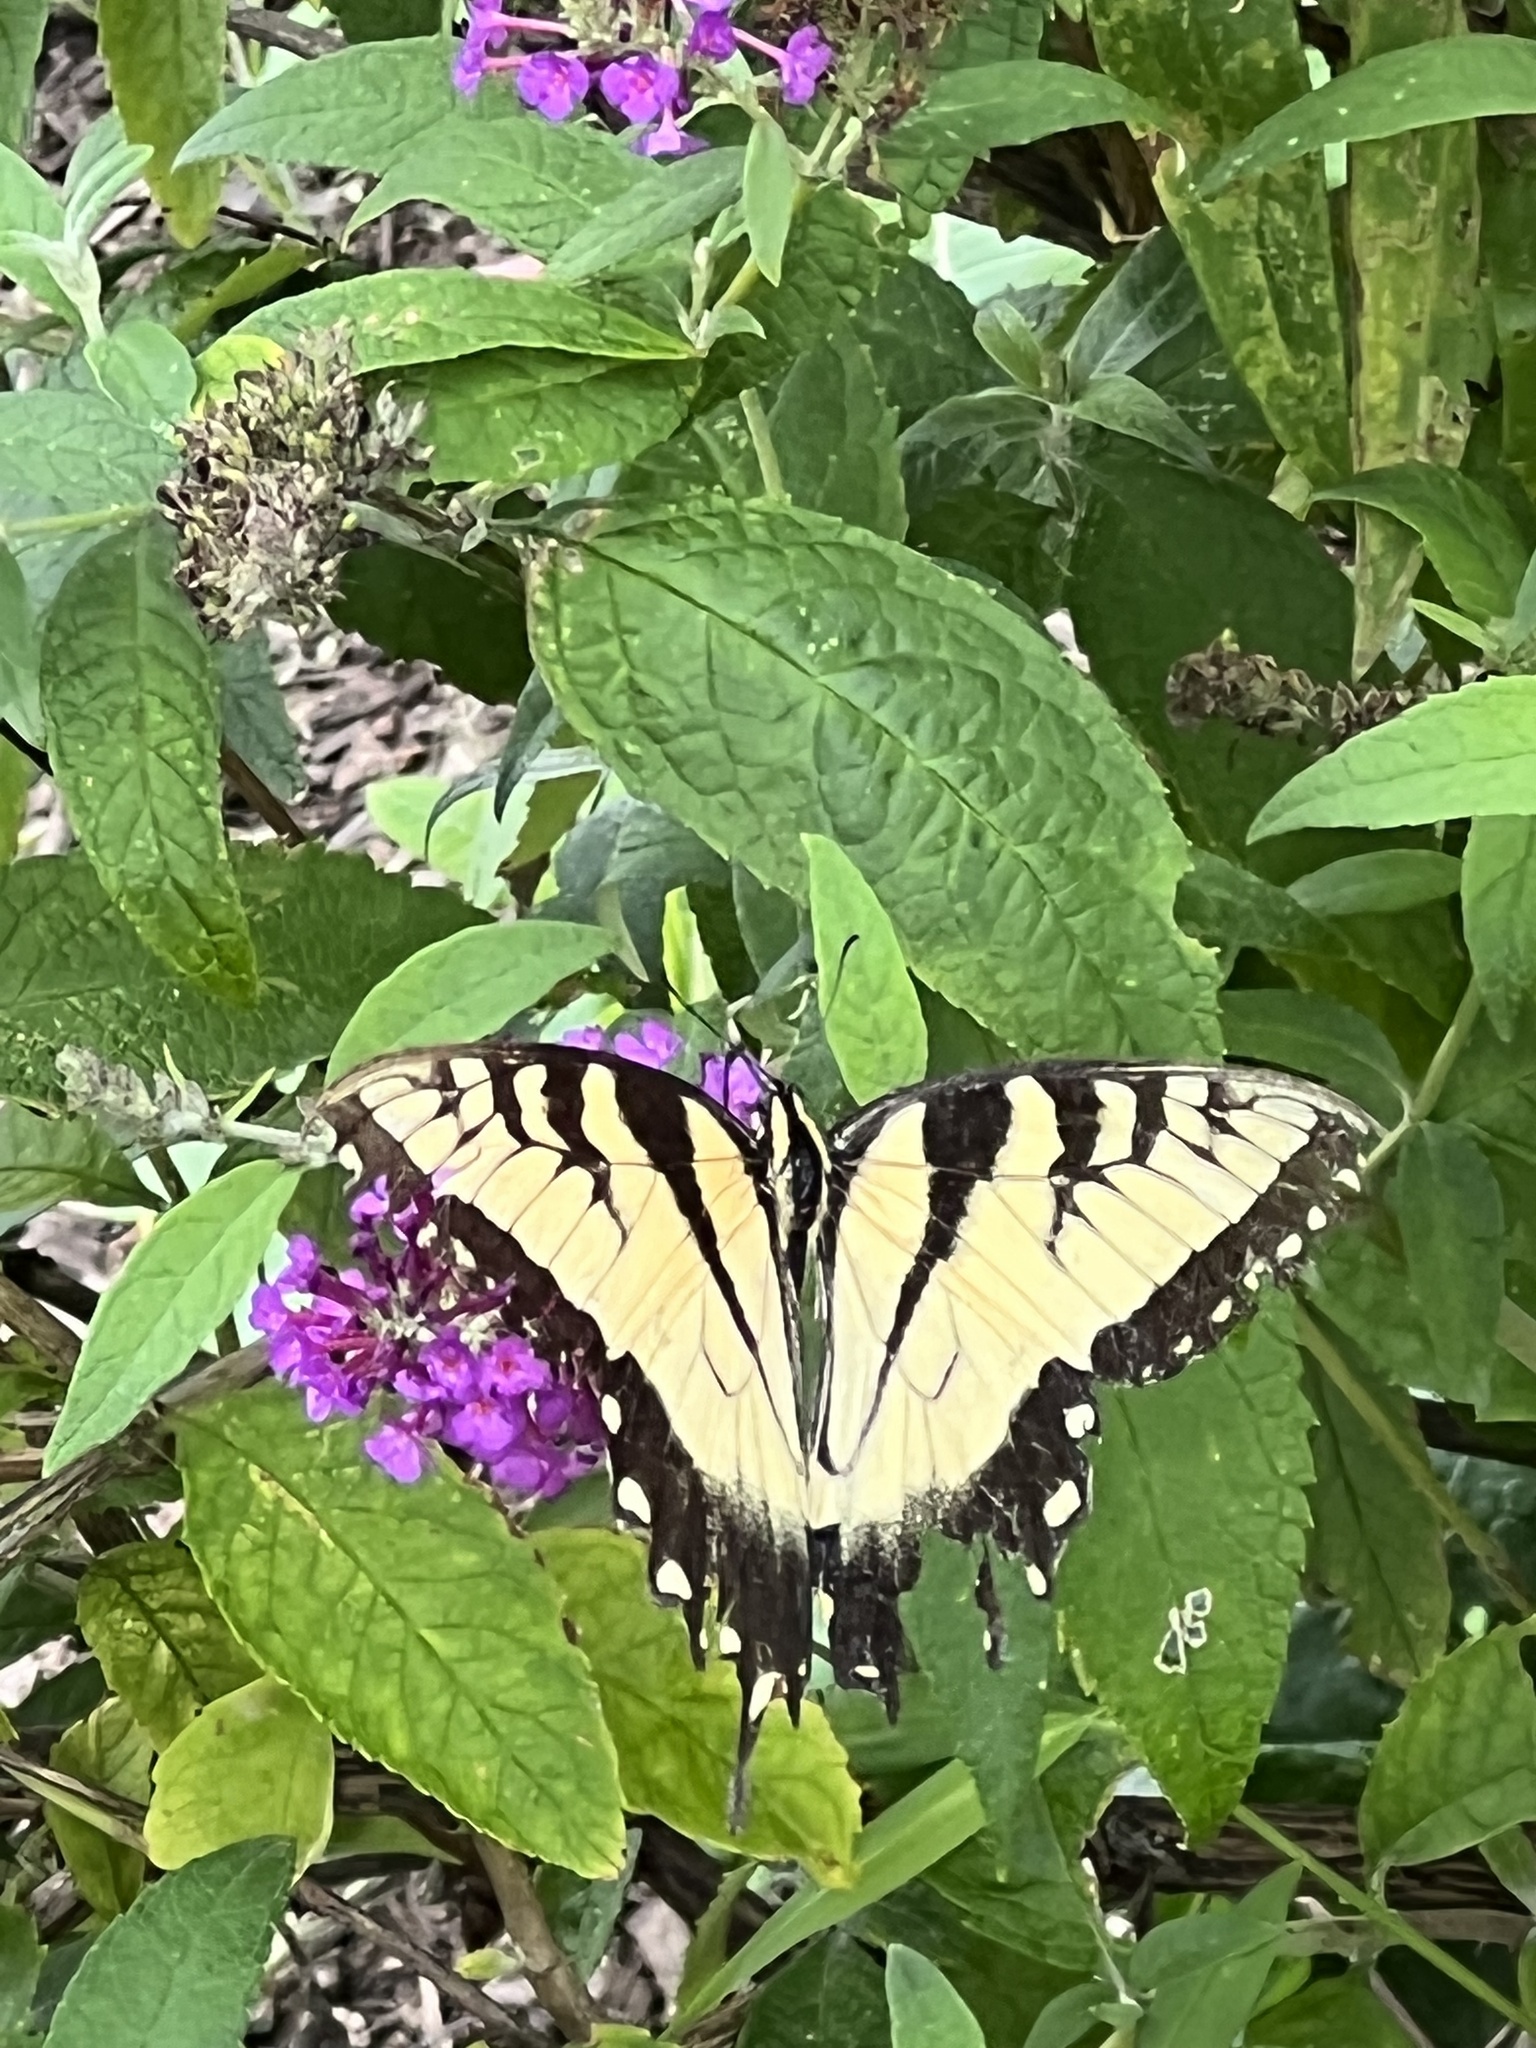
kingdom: Animalia
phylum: Arthropoda
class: Insecta
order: Lepidoptera
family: Papilionidae
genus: Papilio
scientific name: Papilio glaucus
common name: Tiger swallowtail
